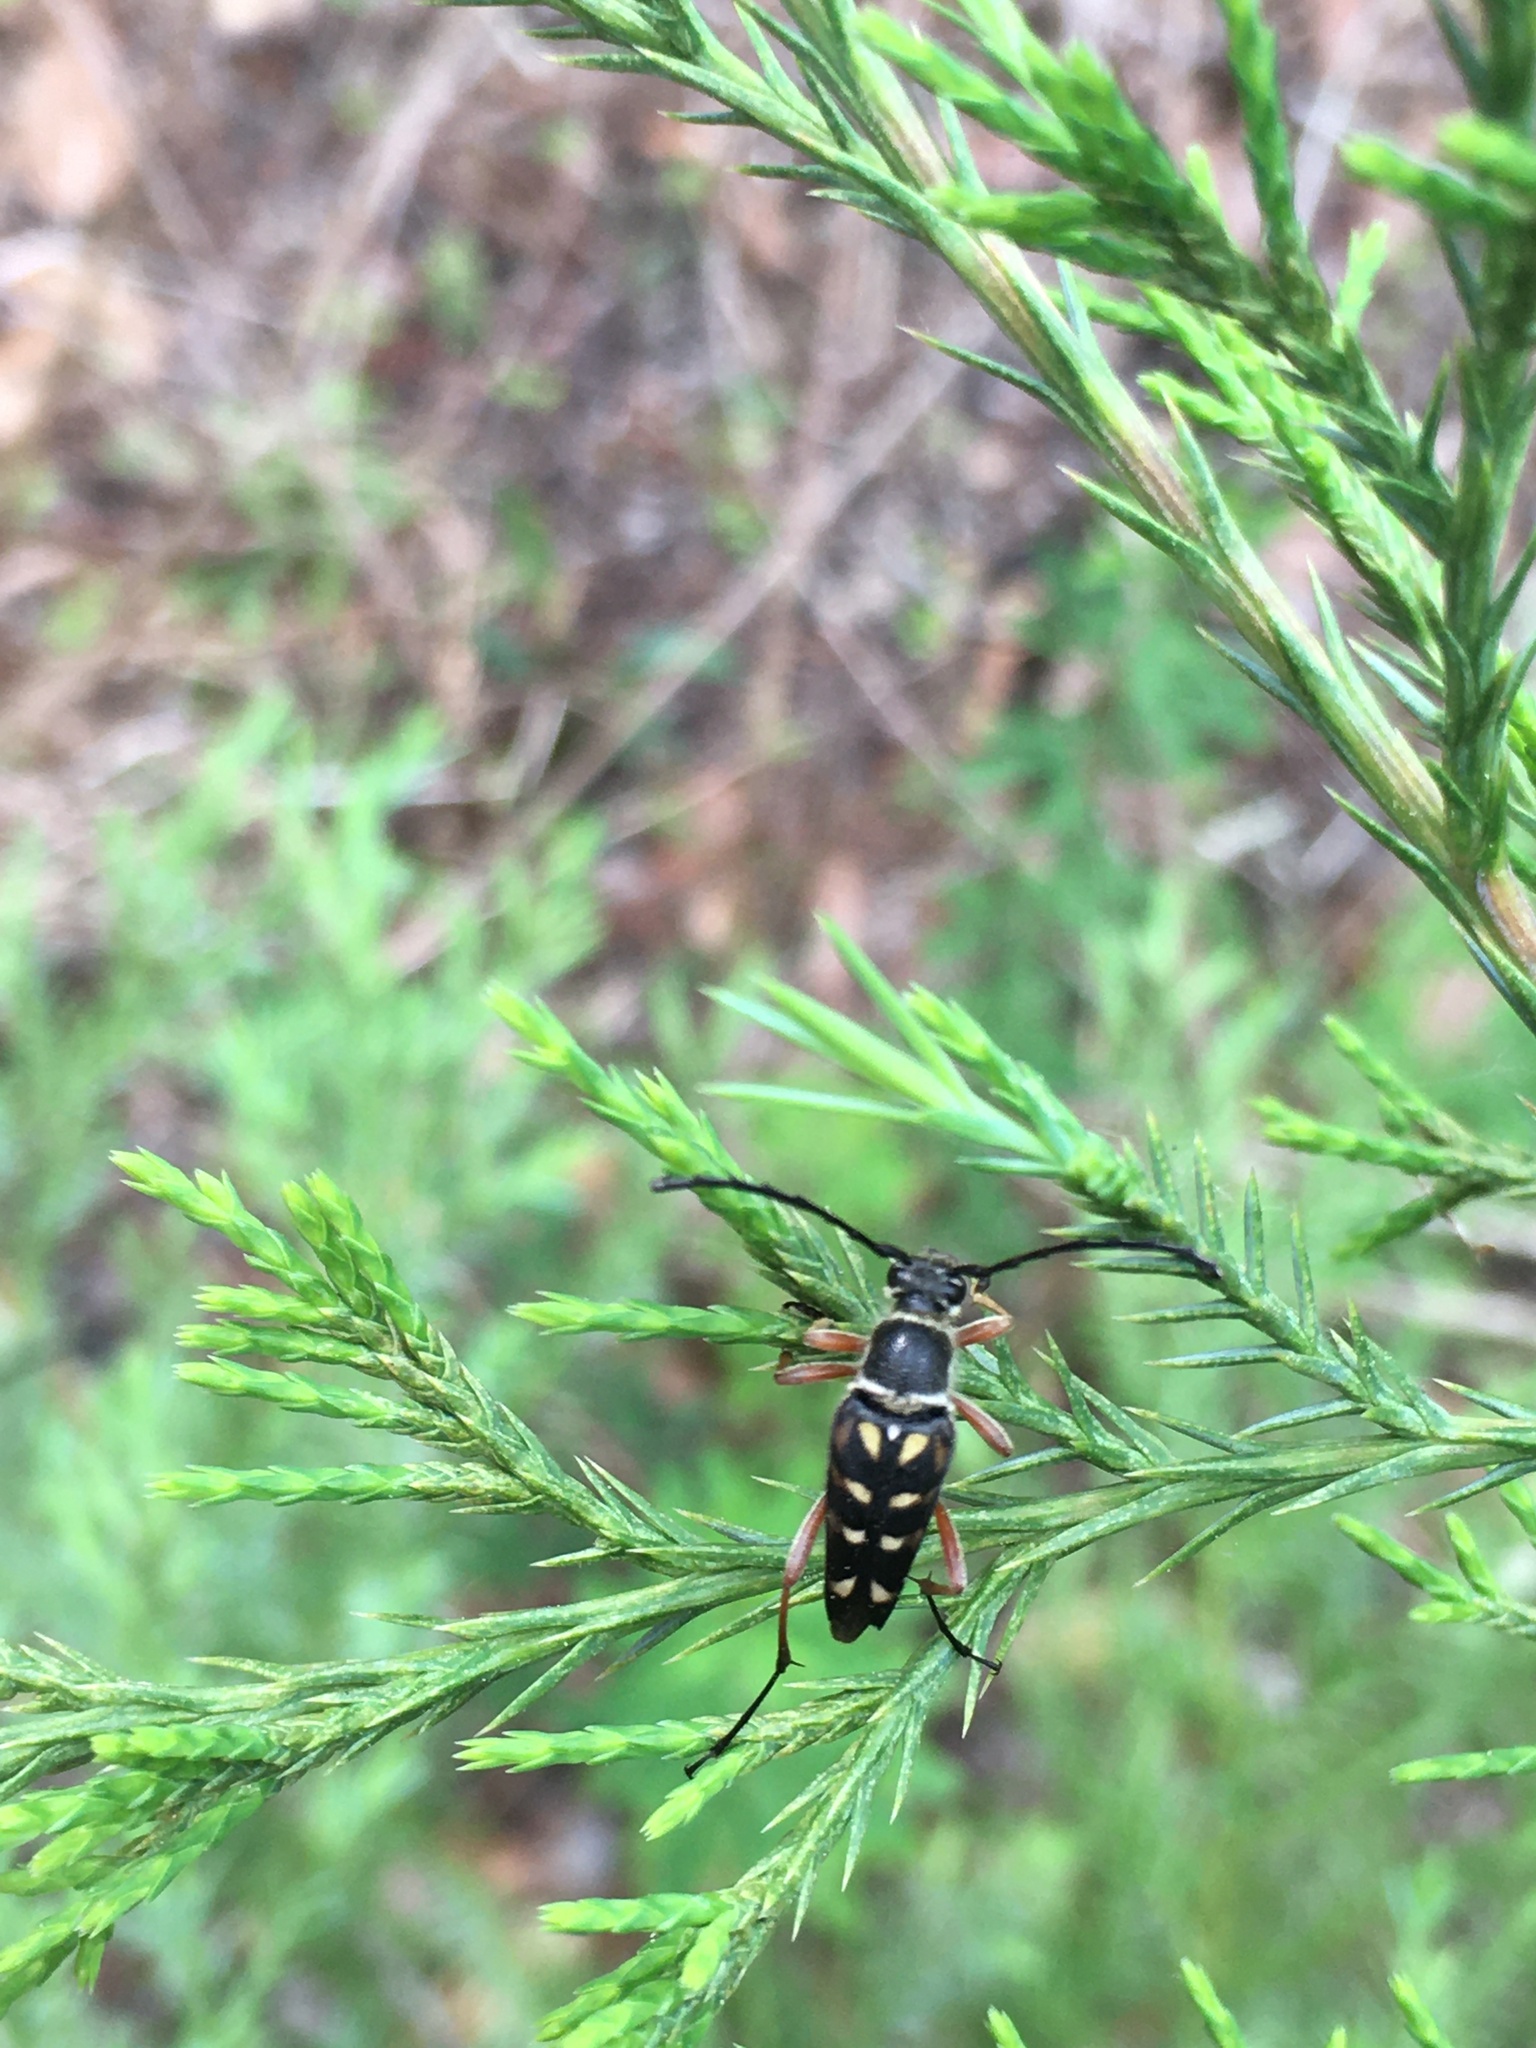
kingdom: Animalia
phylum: Arthropoda
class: Insecta
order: Coleoptera
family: Cerambycidae
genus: Typocerus
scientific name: Typocerus zebra
